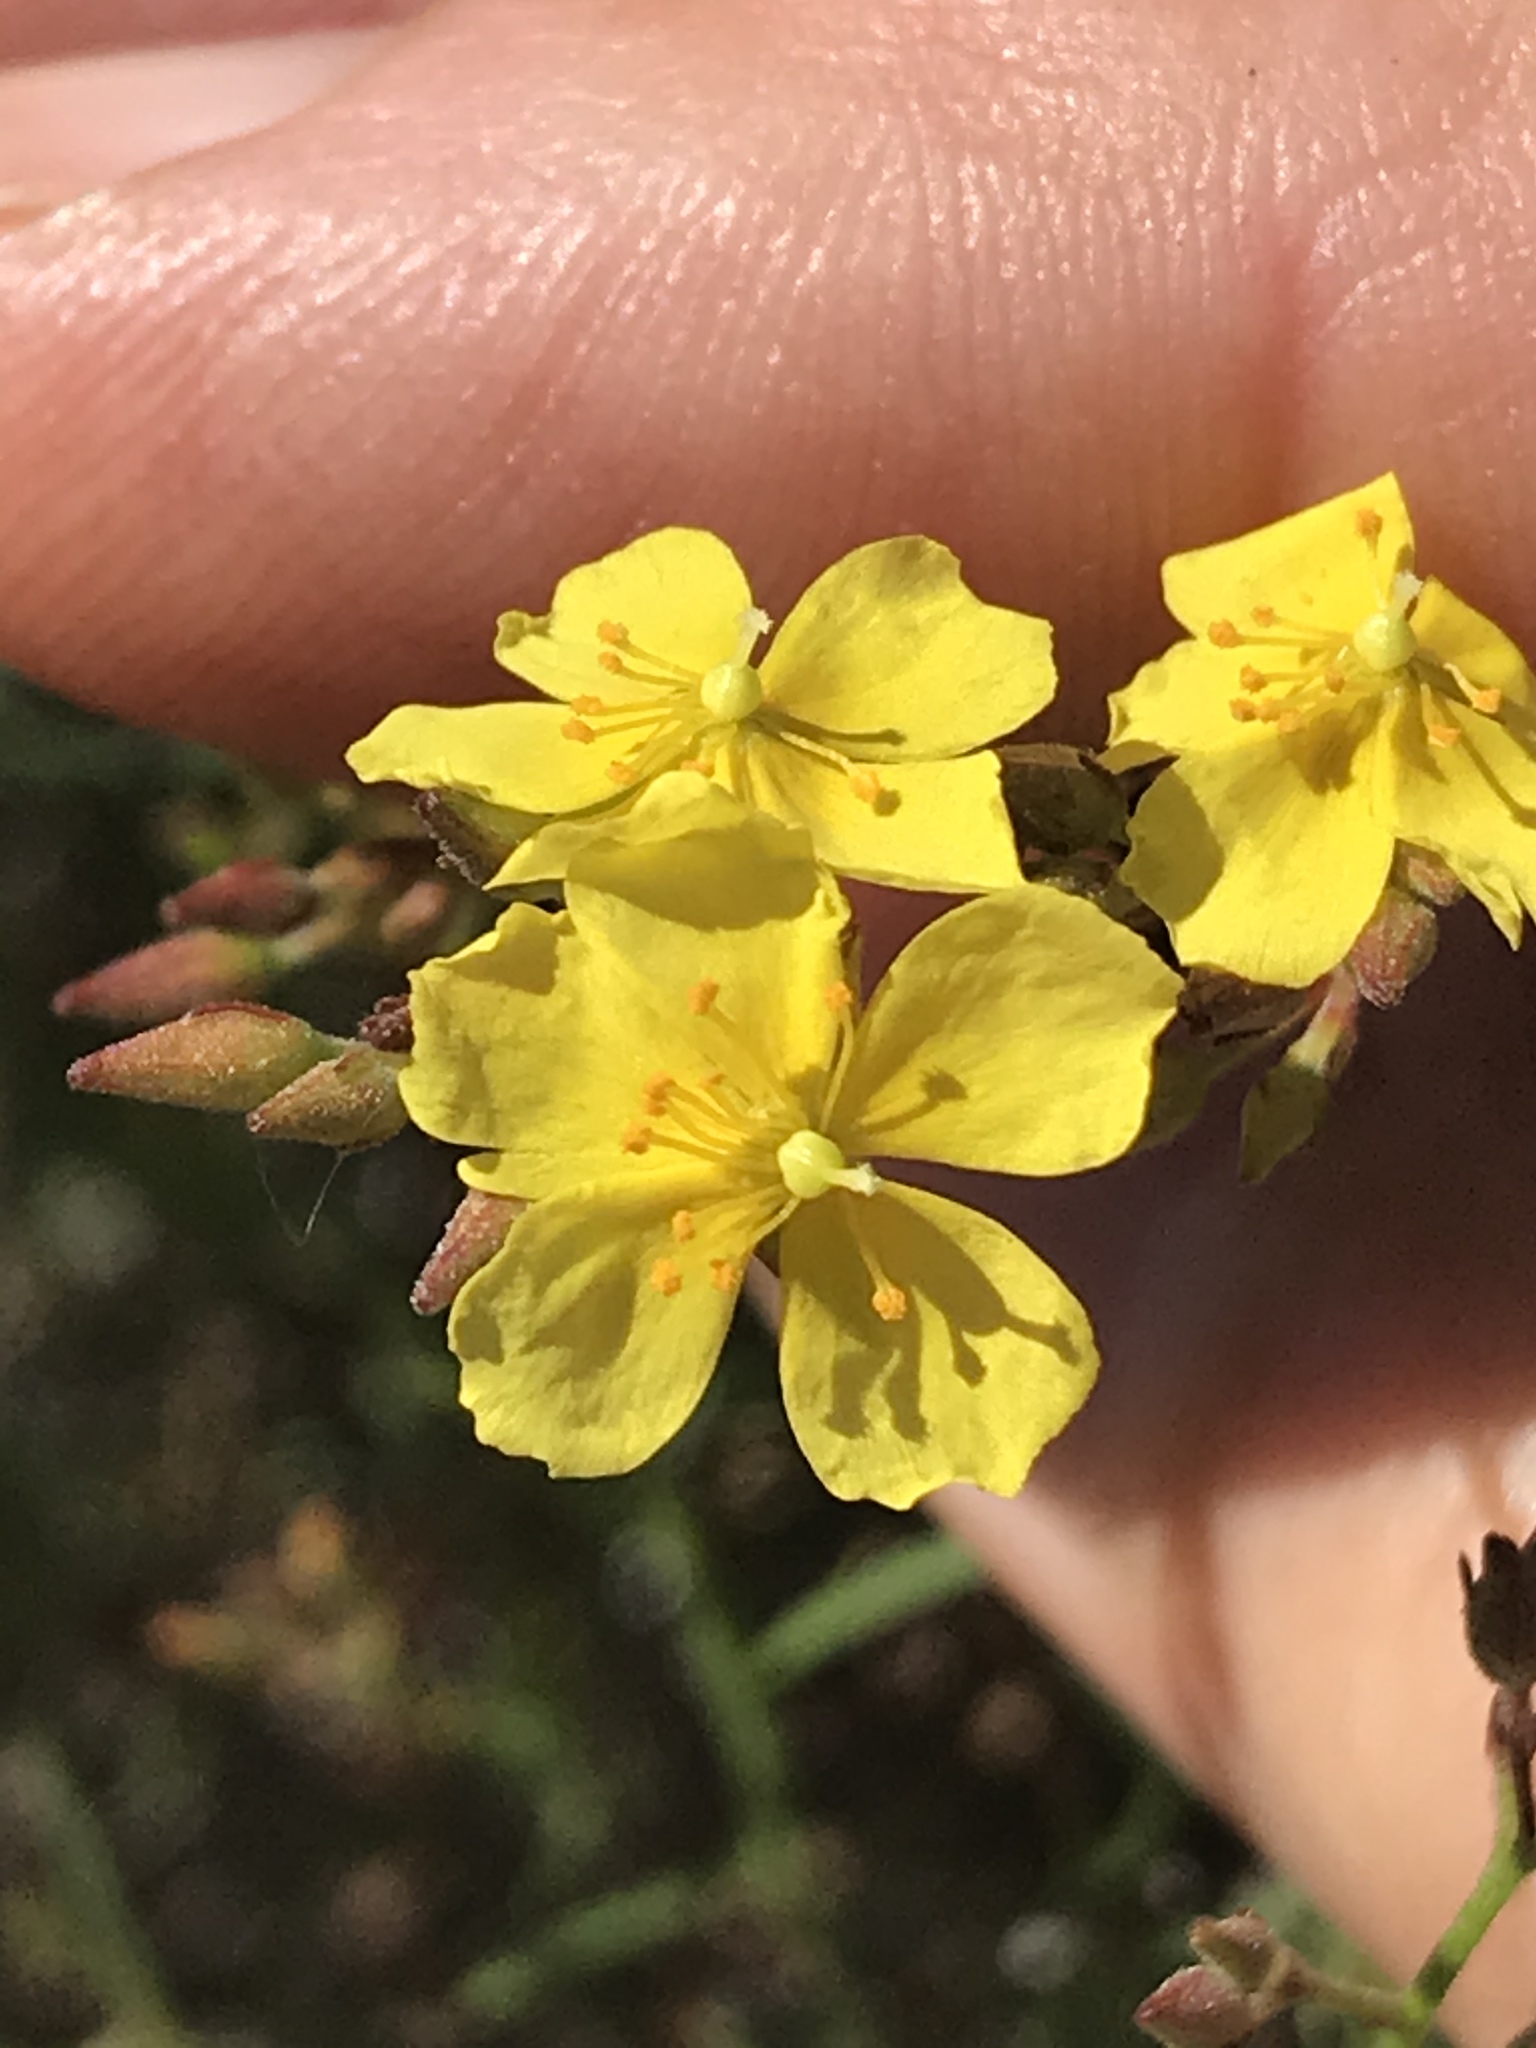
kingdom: Plantae
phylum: Tracheophyta
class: Magnoliopsida
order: Malvales
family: Cistaceae
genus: Crocanthemum
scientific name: Crocanthemum scoparium
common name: Broom-rose
